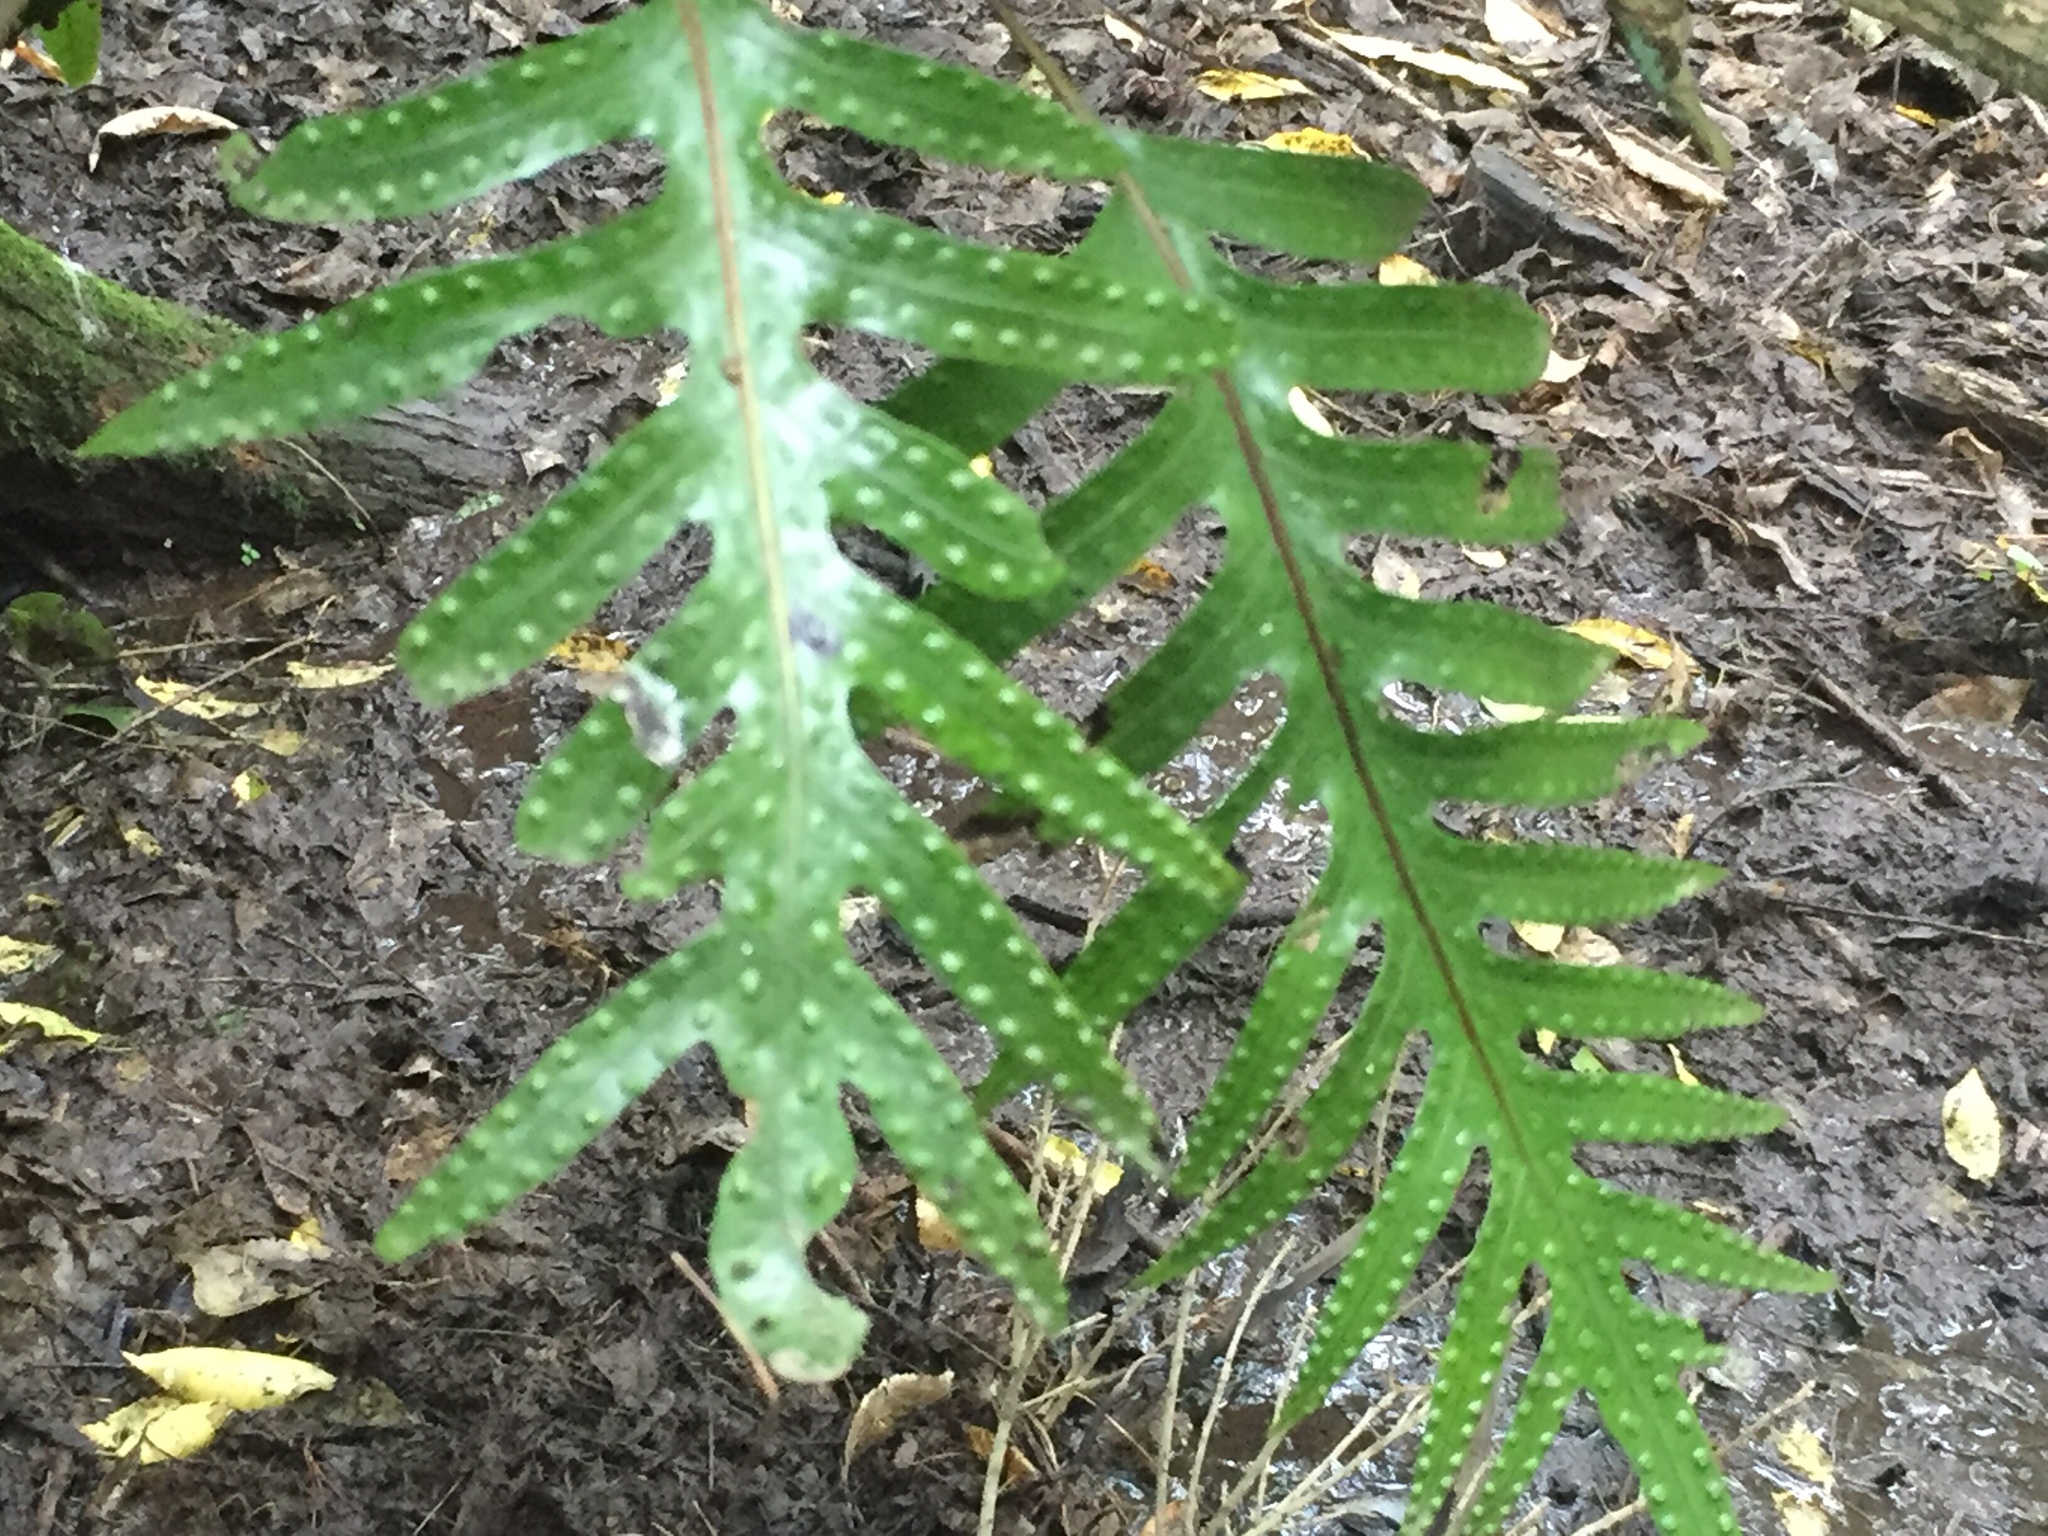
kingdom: Plantae
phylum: Tracheophyta
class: Polypodiopsida
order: Polypodiales
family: Polypodiaceae
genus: Lecanopteris
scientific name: Lecanopteris pustulata
